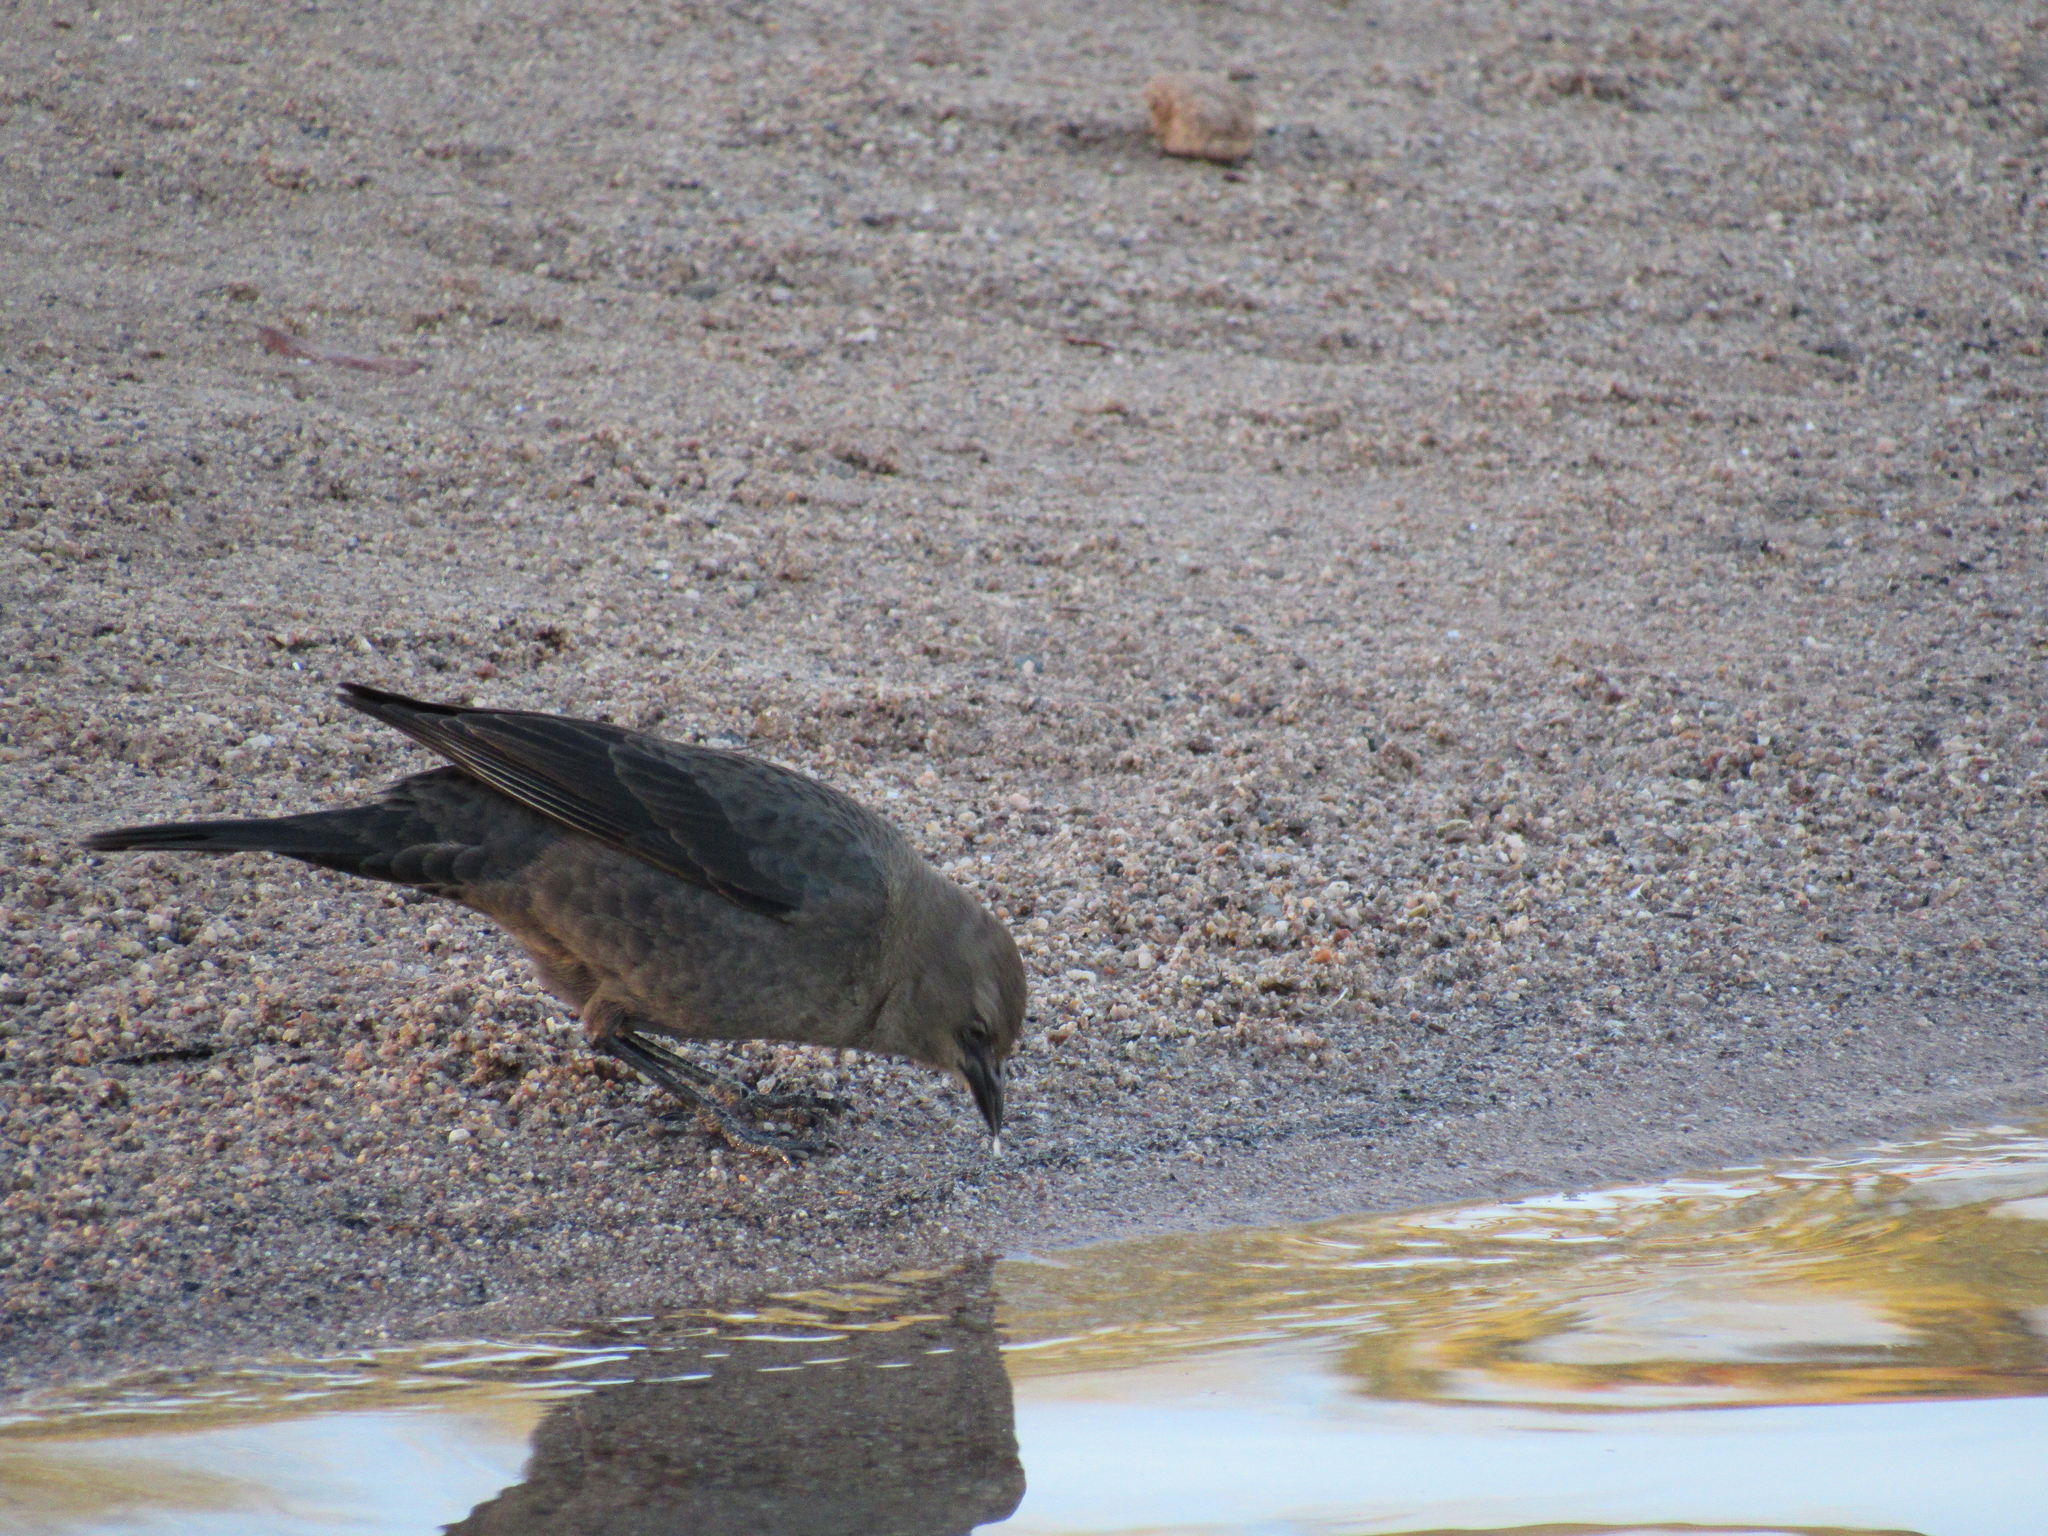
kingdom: Animalia
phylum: Chordata
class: Aves
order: Passeriformes
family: Icteridae
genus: Euphagus
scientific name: Euphagus cyanocephalus
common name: Brewer's blackbird
